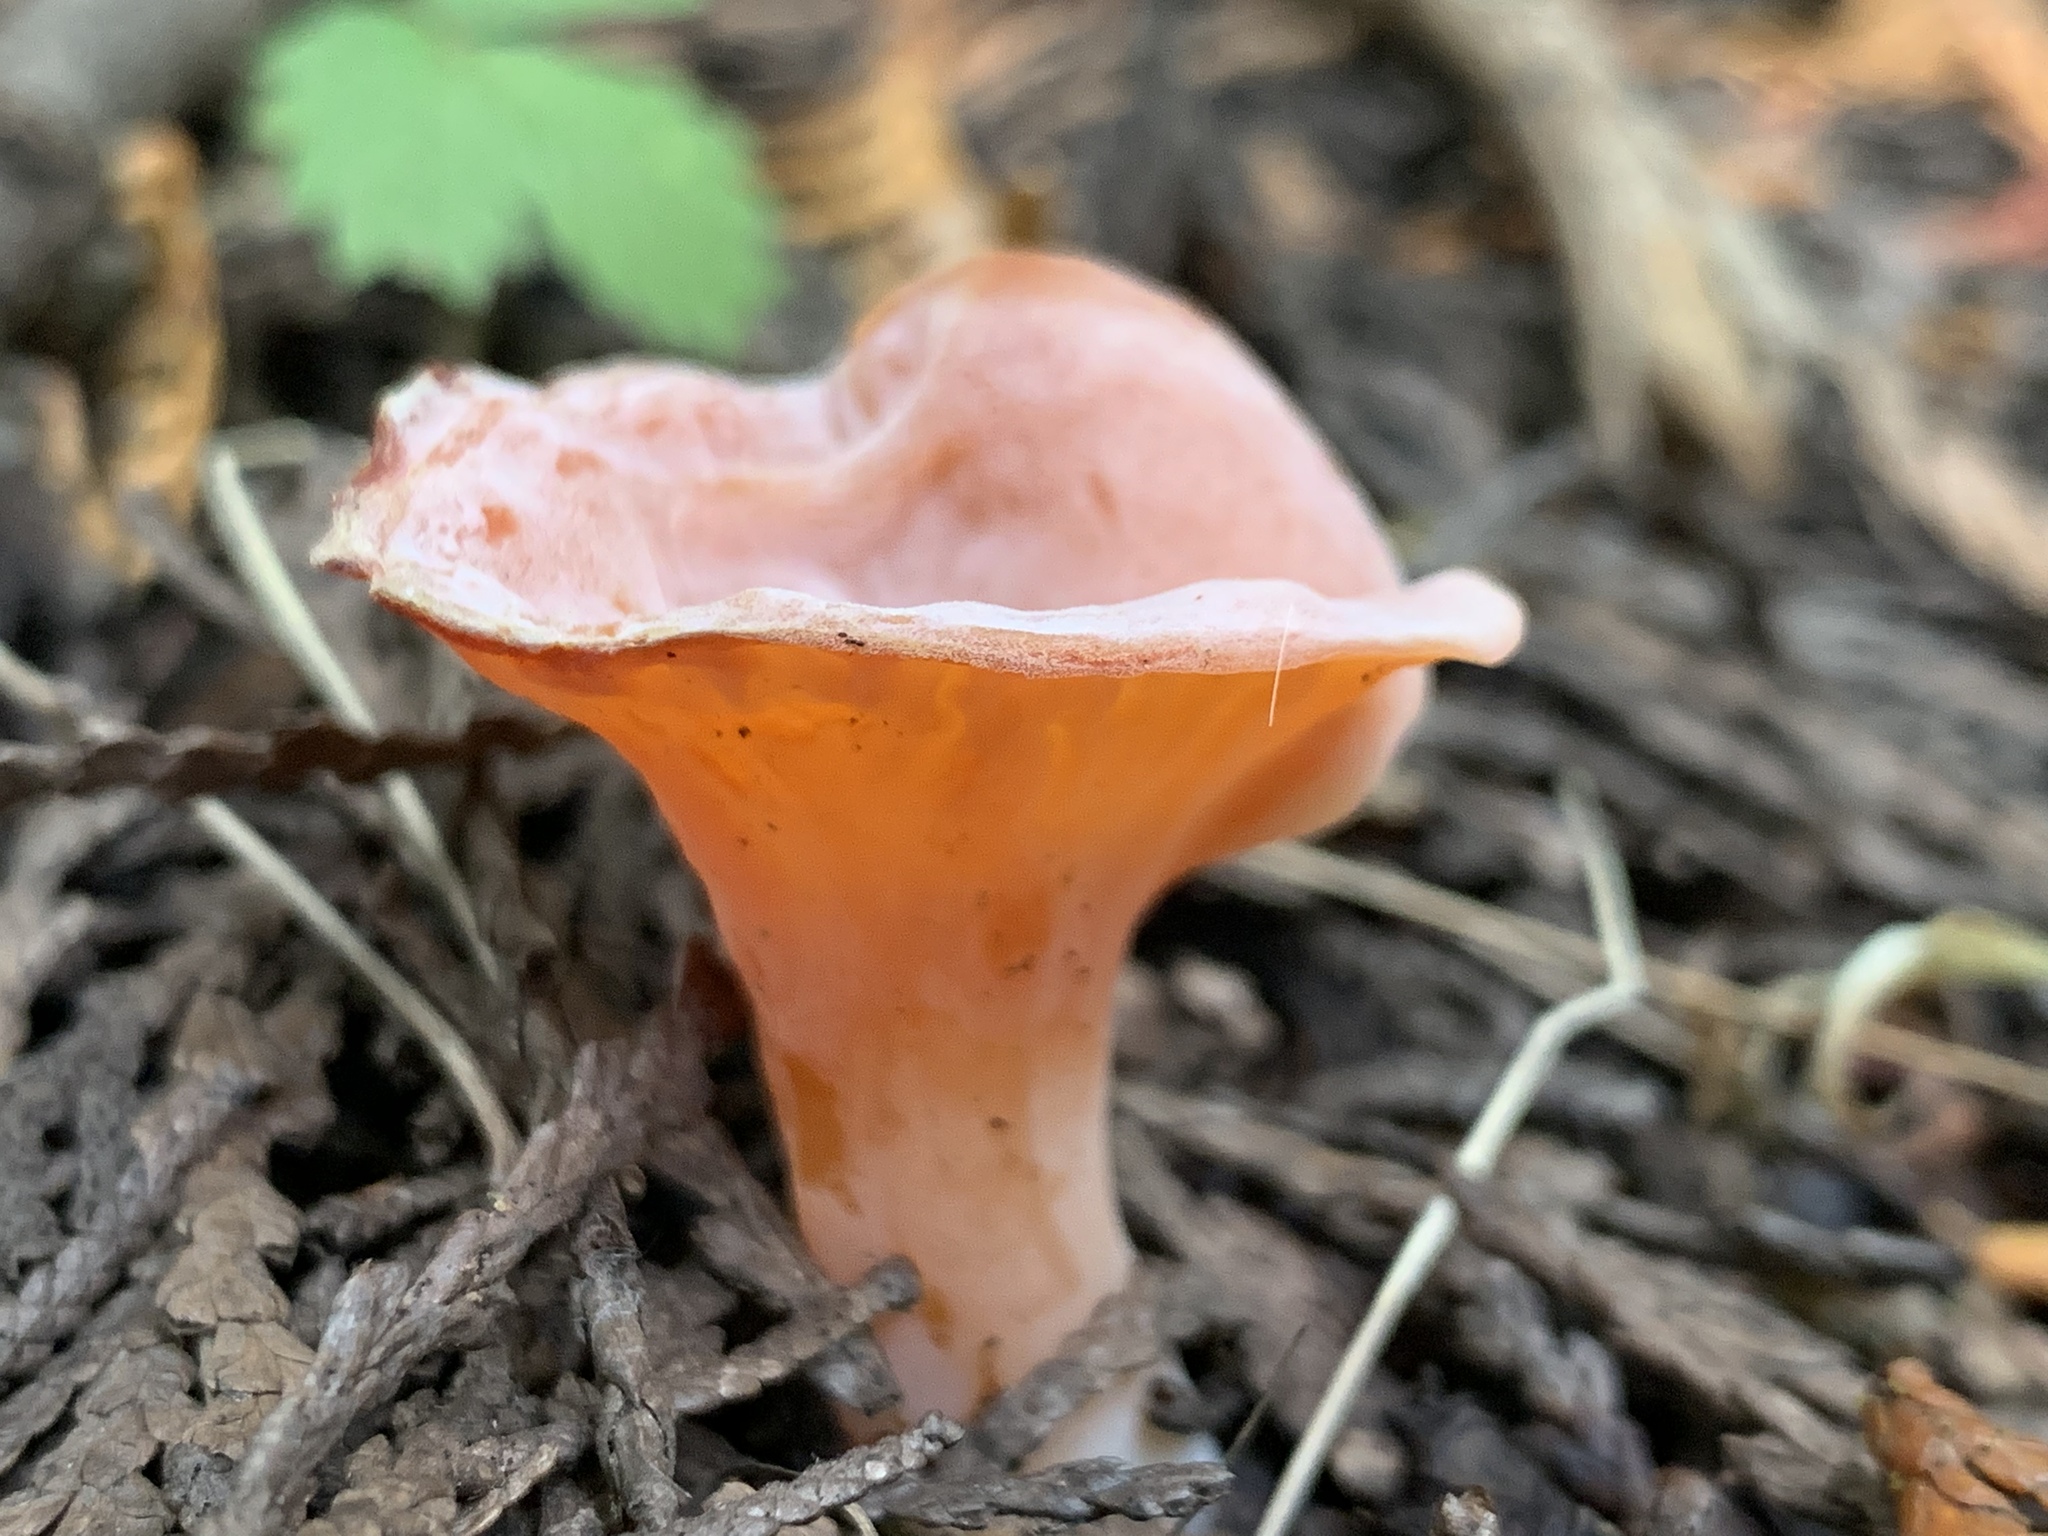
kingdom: Fungi
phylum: Basidiomycota
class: Agaricomycetes
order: Auriculariales
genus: Guepinia
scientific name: Guepinia helvelloides
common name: Salmon salad
